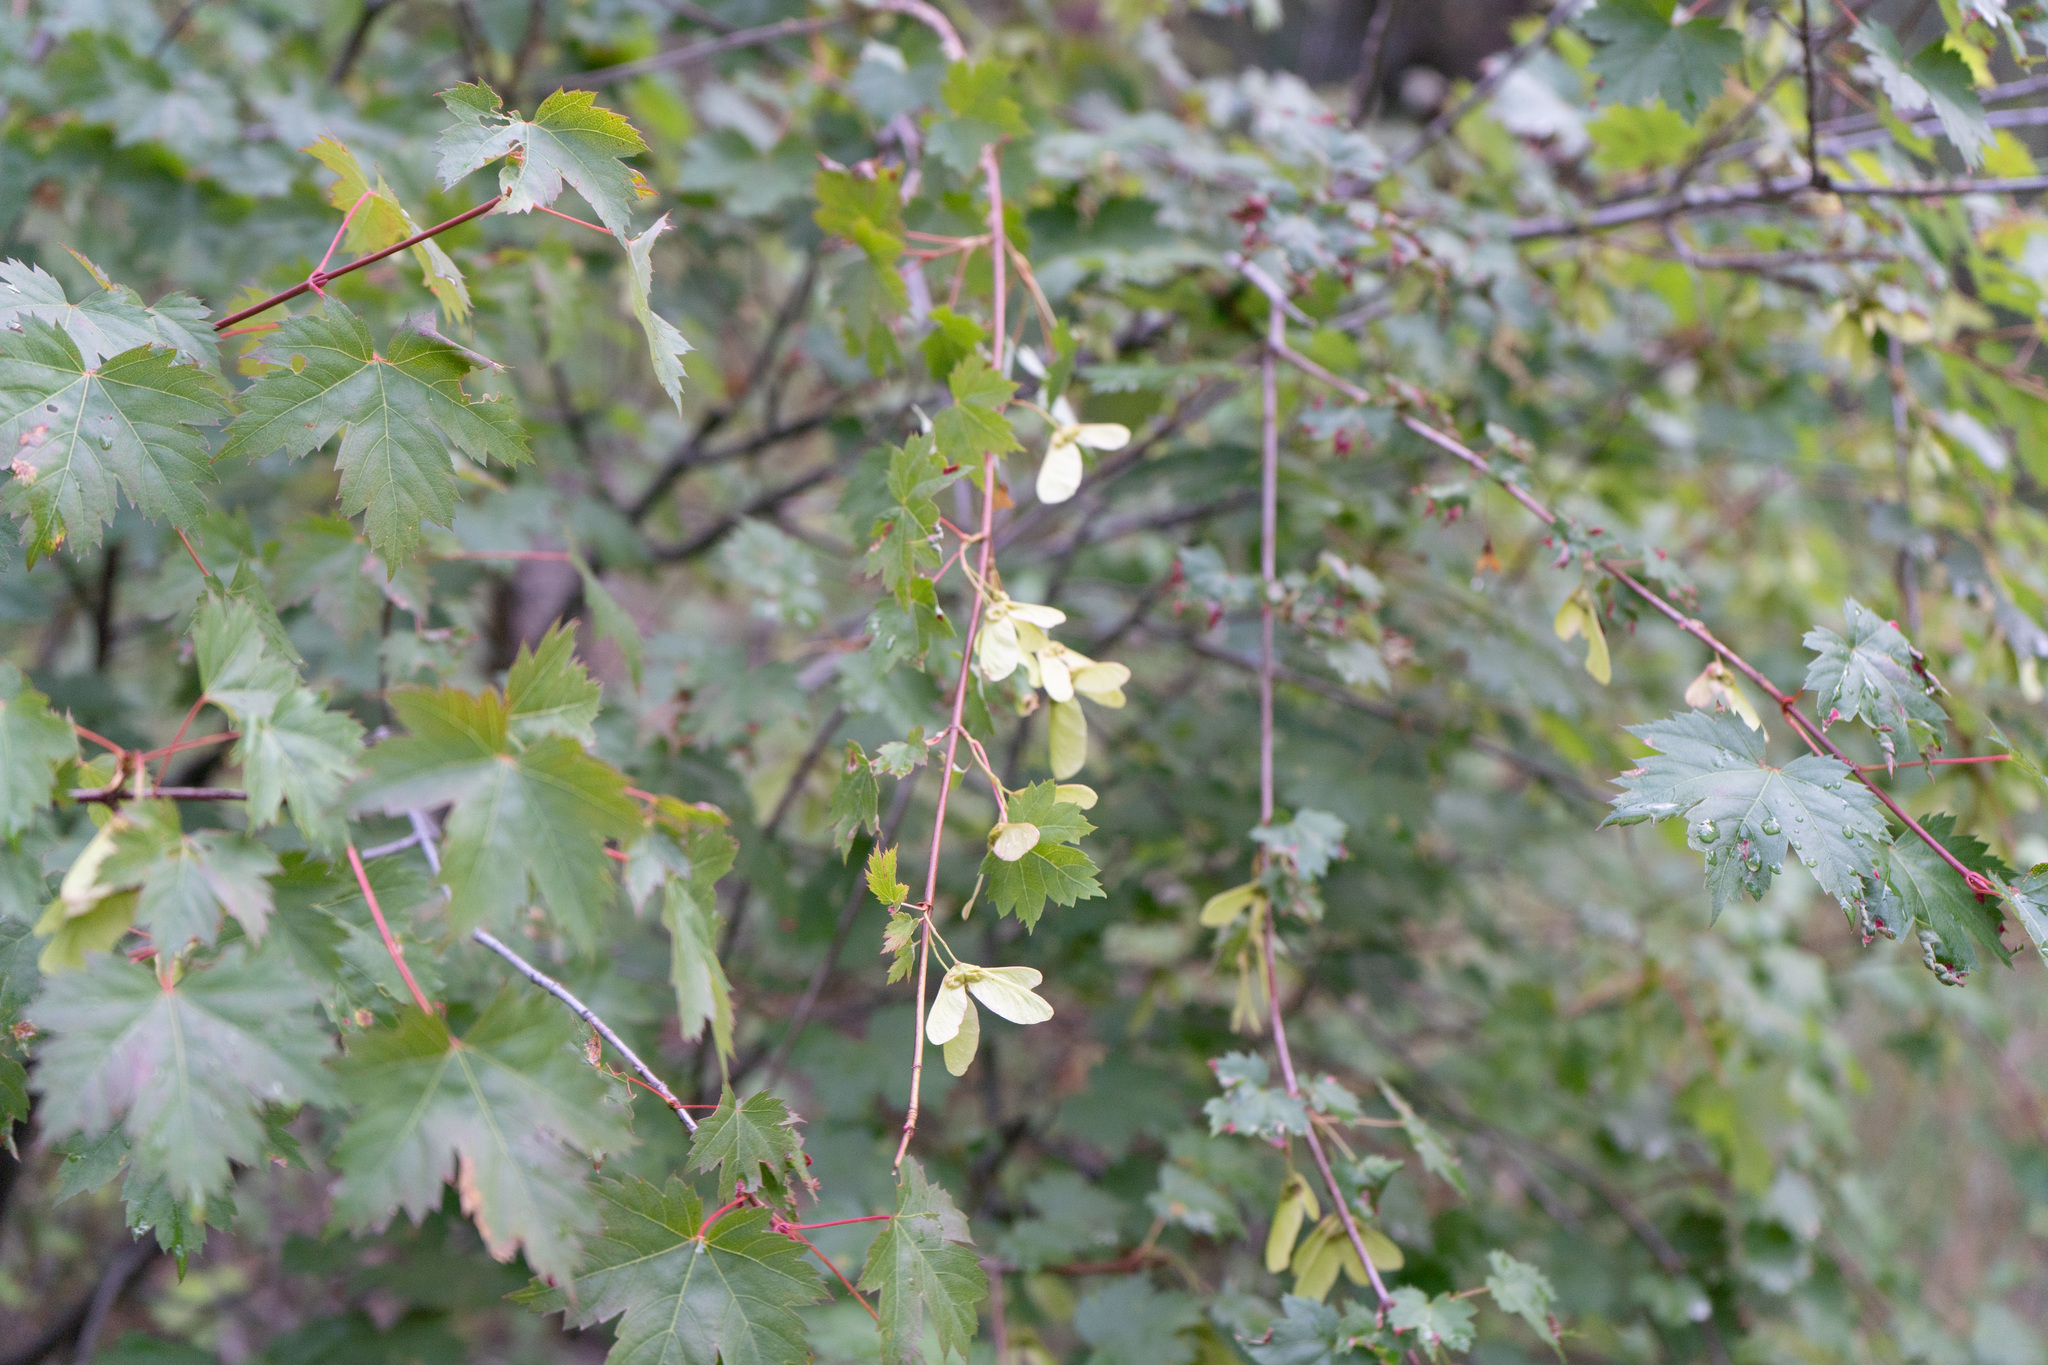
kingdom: Plantae
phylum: Tracheophyta
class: Magnoliopsida
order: Sapindales
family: Sapindaceae
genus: Acer
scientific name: Acer glabrum
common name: Rocky mountain maple
